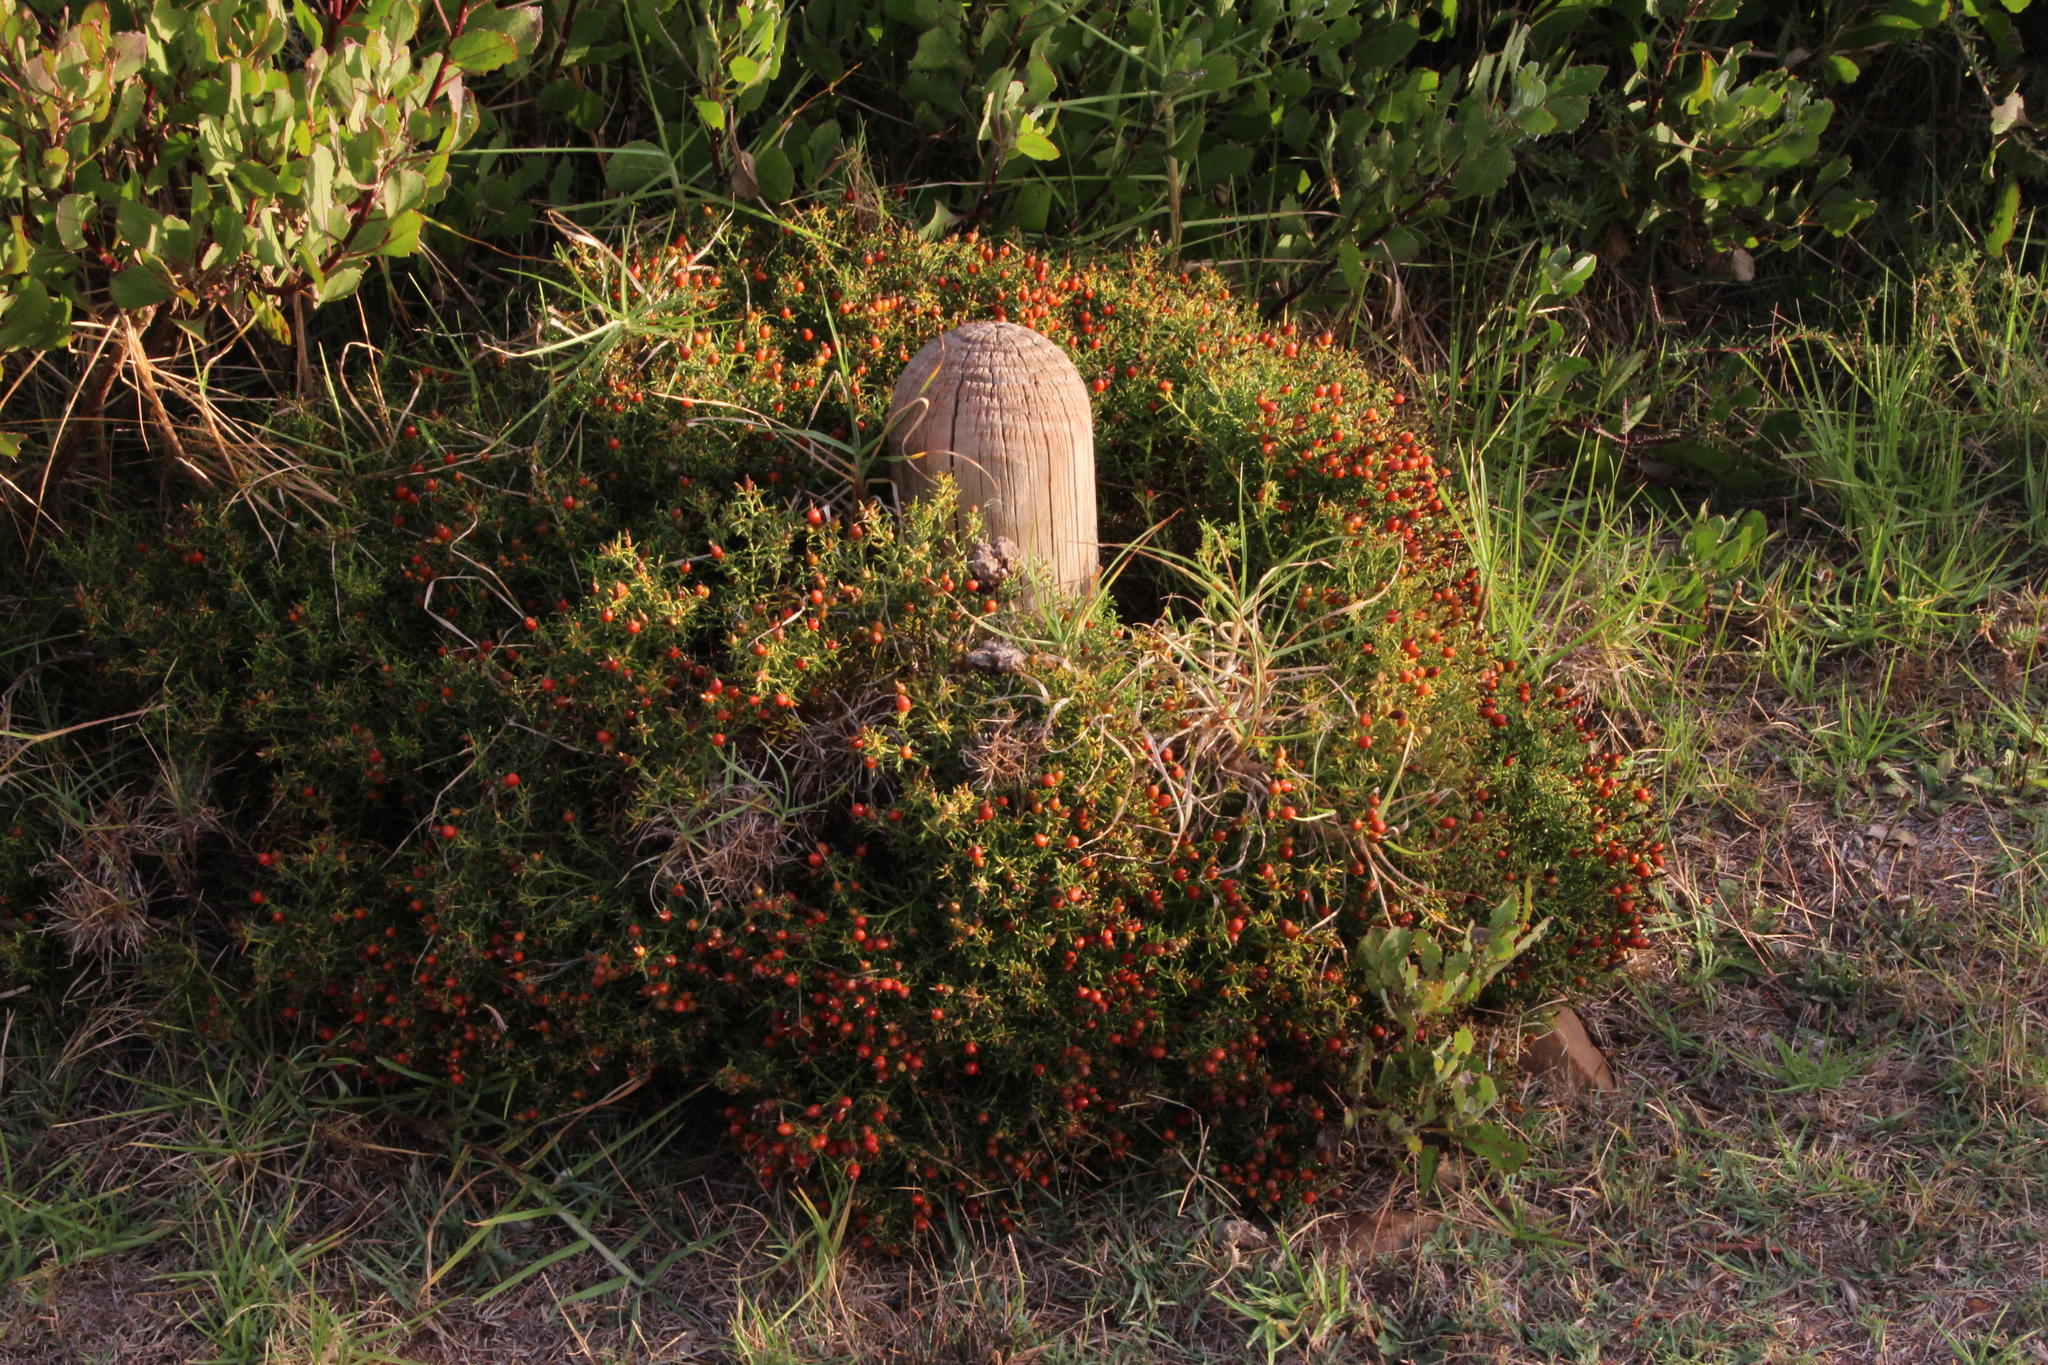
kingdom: Plantae
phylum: Tracheophyta
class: Magnoliopsida
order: Gentianales
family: Gentianaceae
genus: Chironia
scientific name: Chironia baccifera
